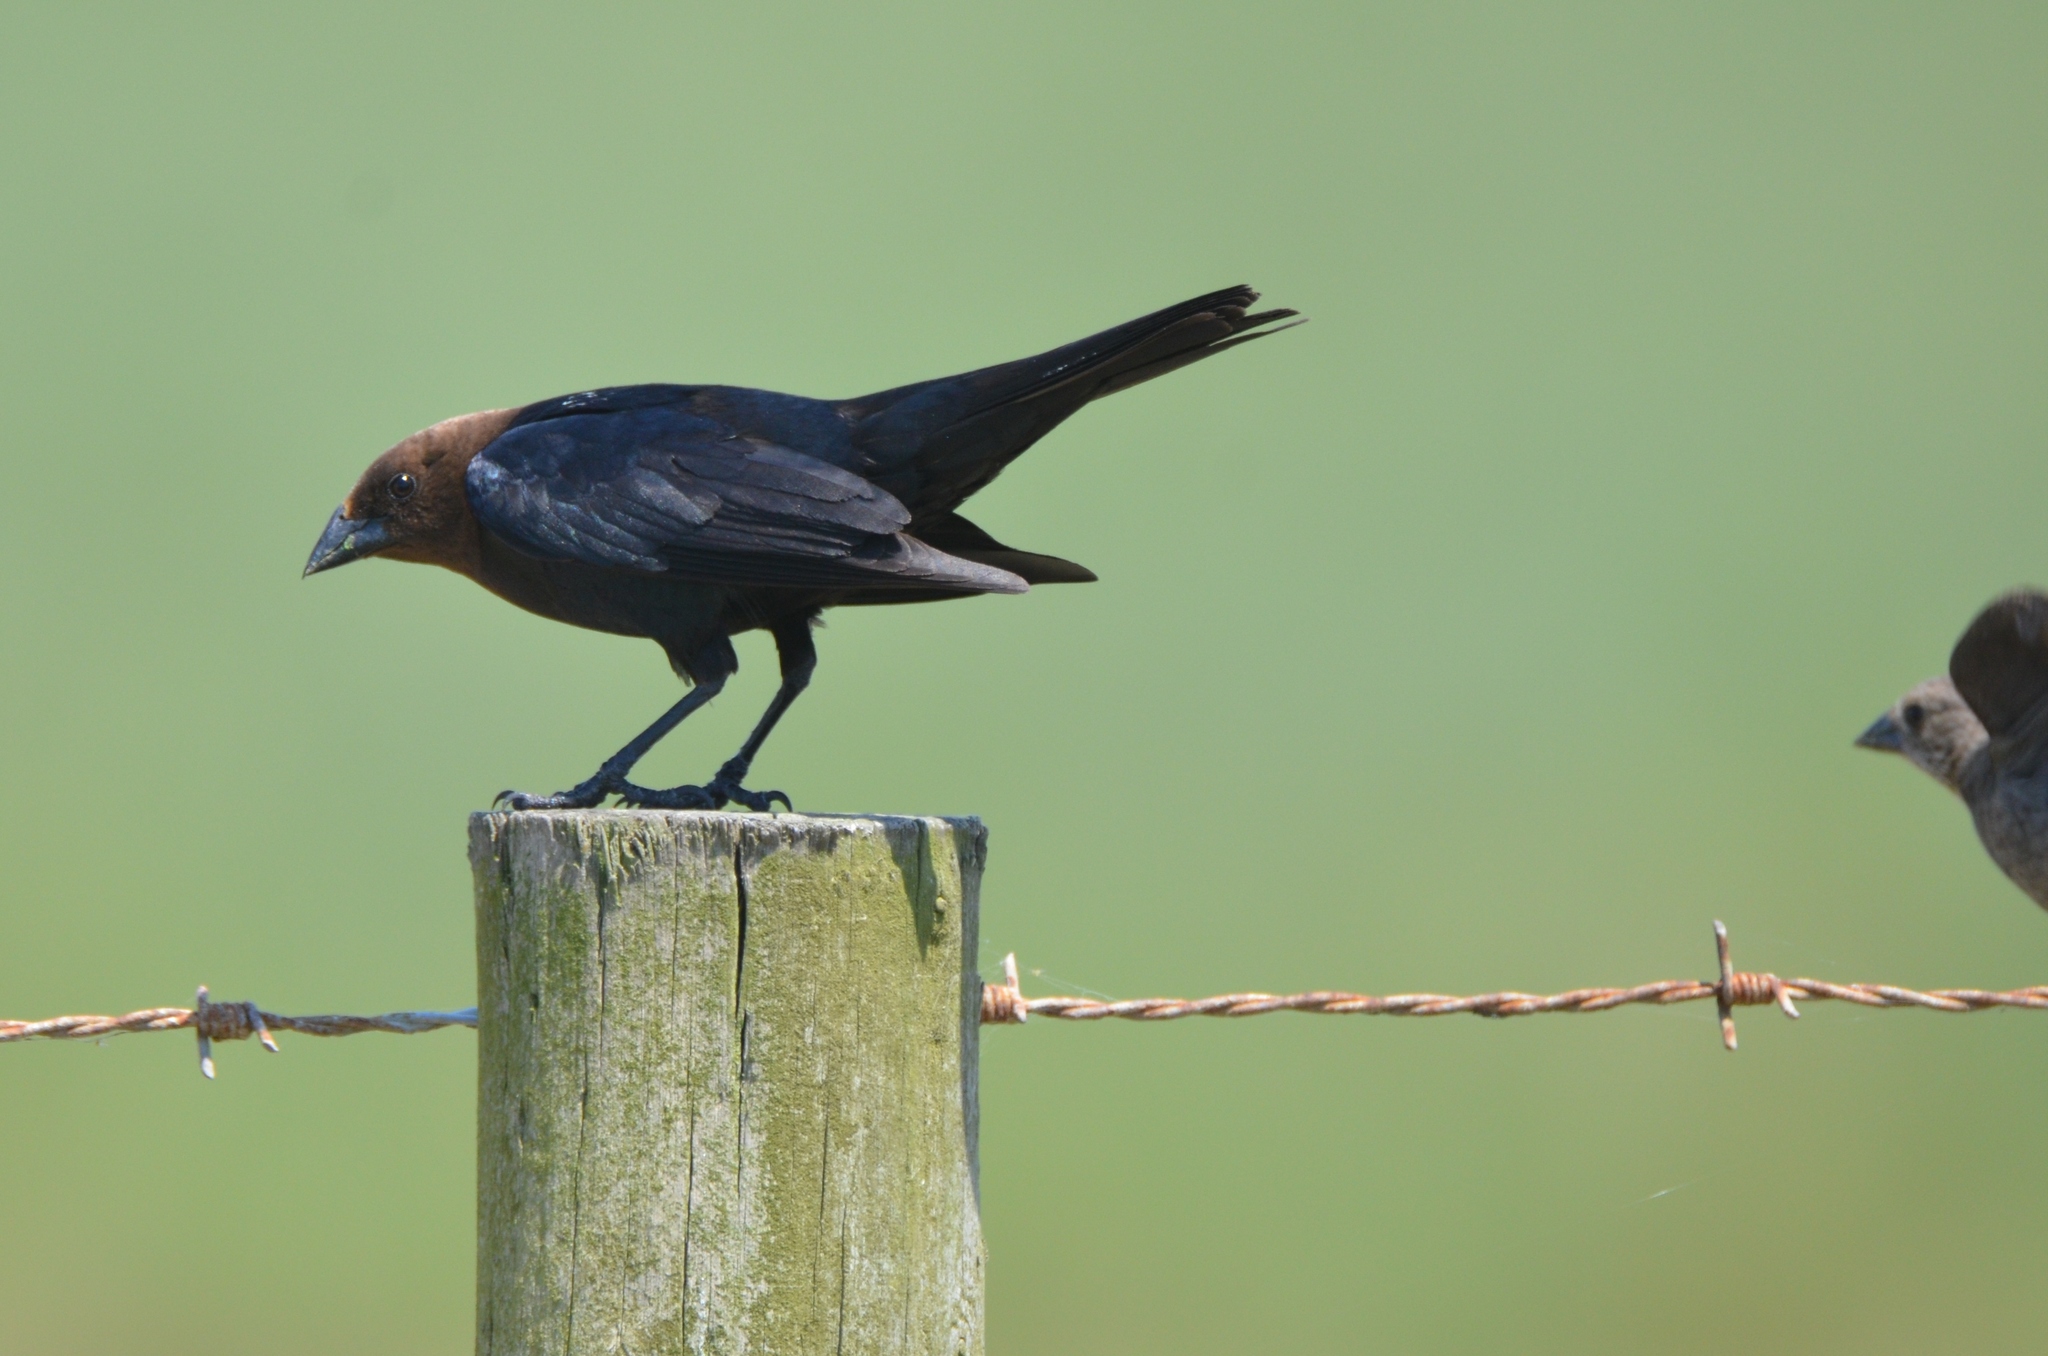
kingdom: Animalia
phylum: Chordata
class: Aves
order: Passeriformes
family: Icteridae
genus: Molothrus
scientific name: Molothrus ater
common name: Brown-headed cowbird
